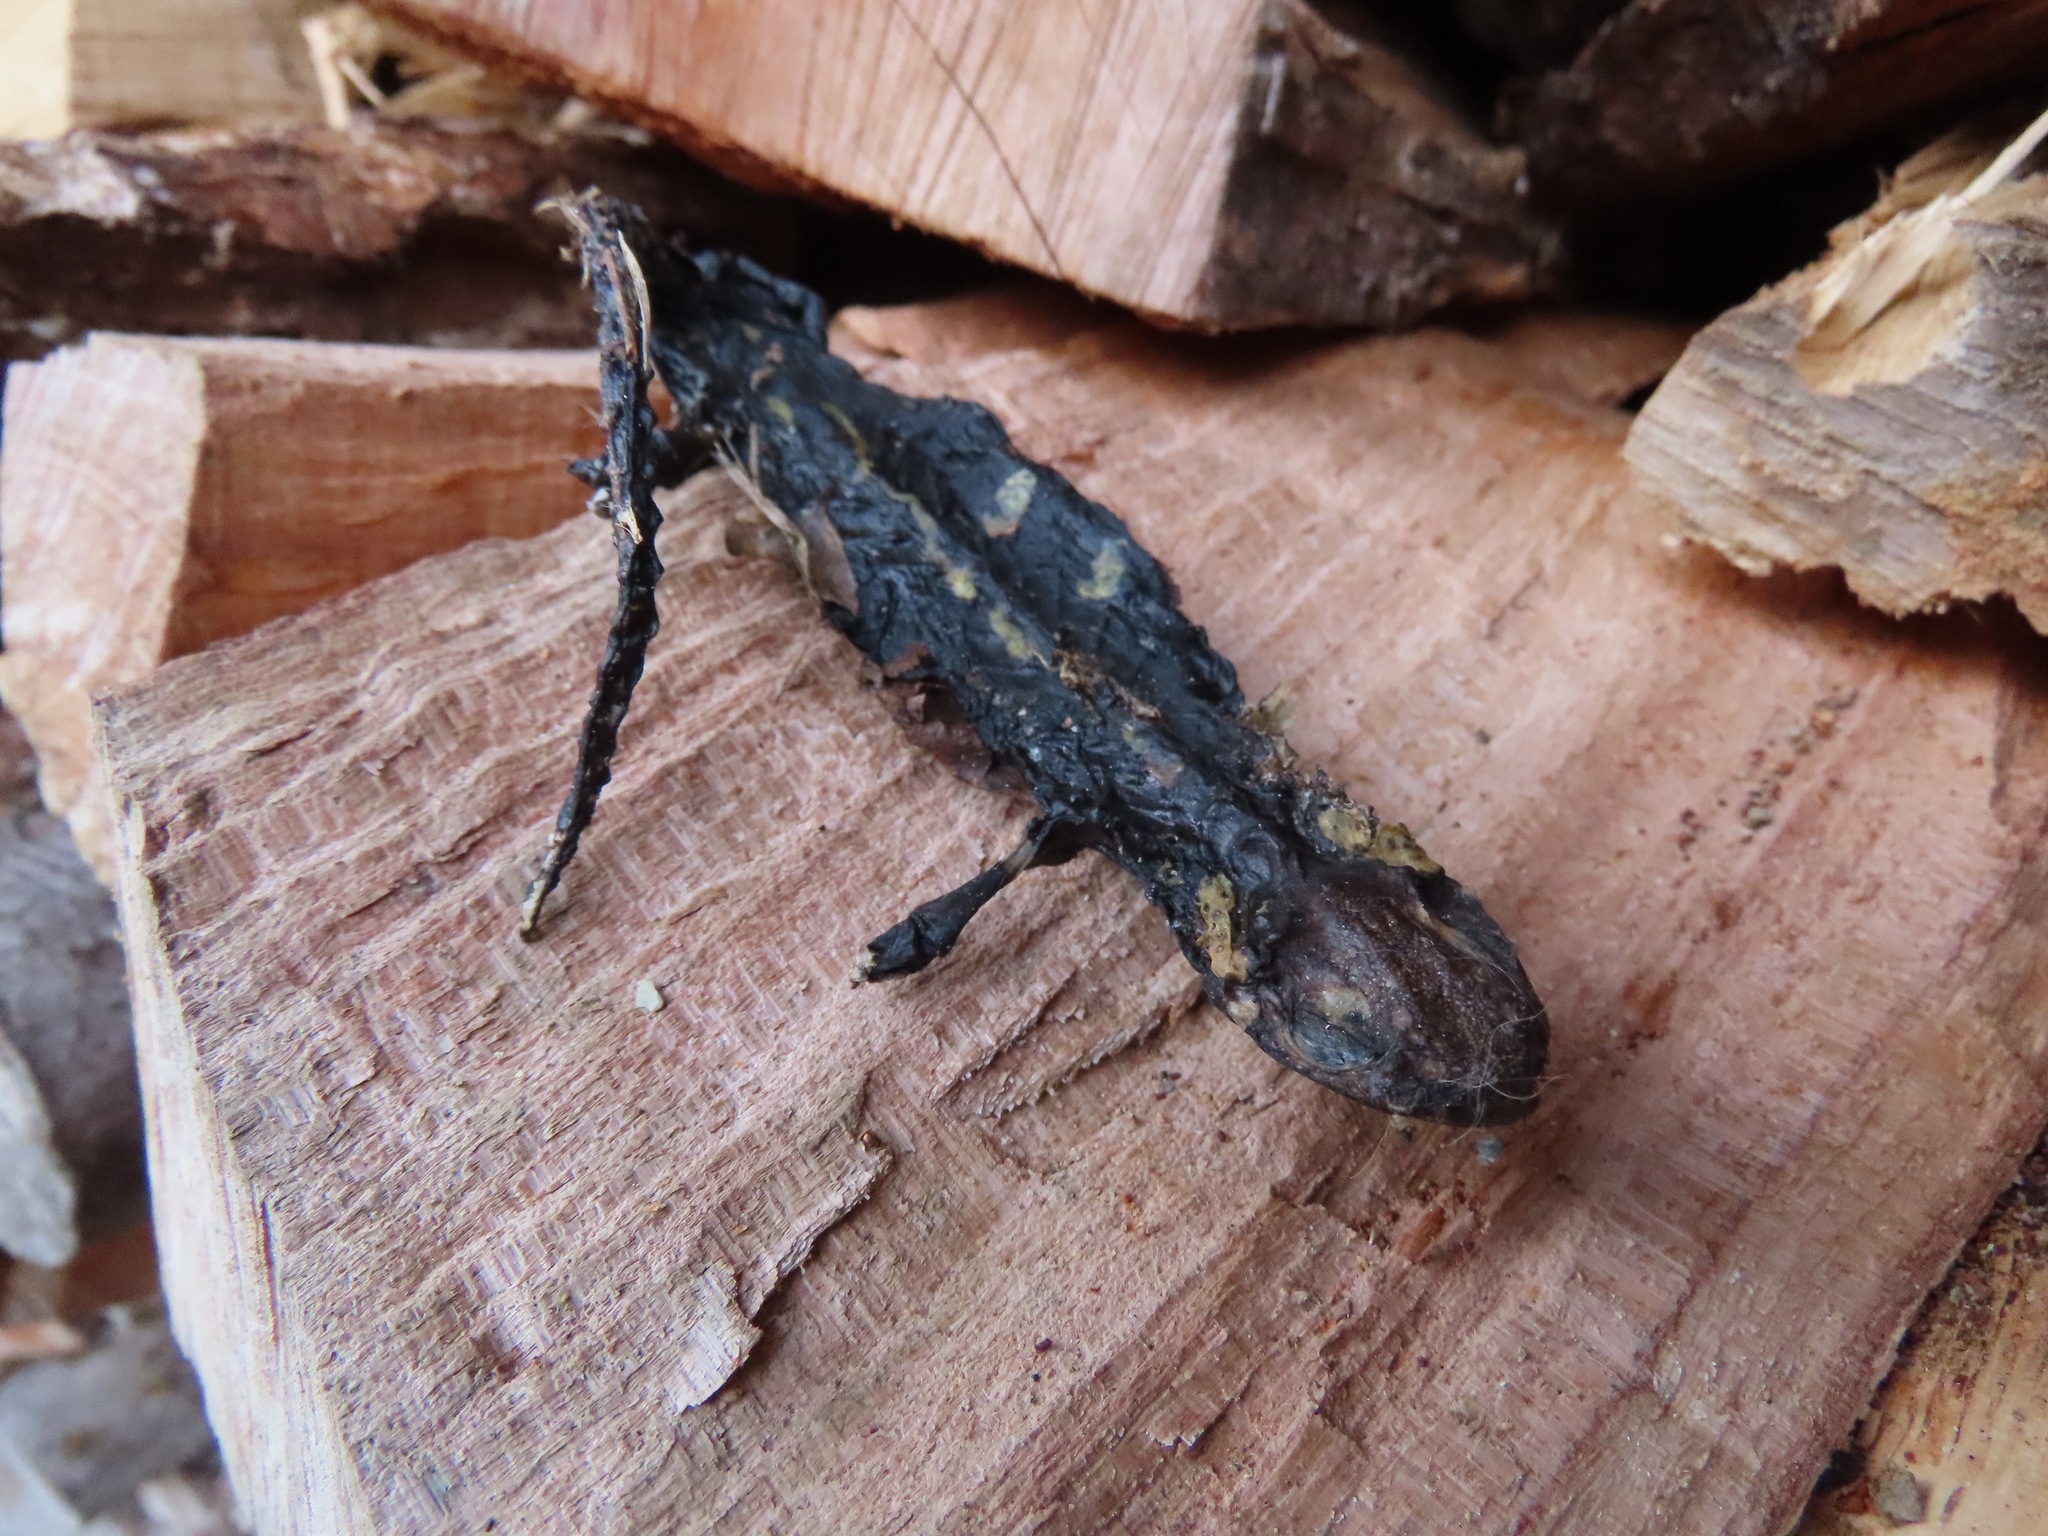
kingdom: Animalia
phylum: Chordata
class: Amphibia
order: Caudata
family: Salamandridae
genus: Salamandra
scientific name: Salamandra salamandra
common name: Fire salamander
